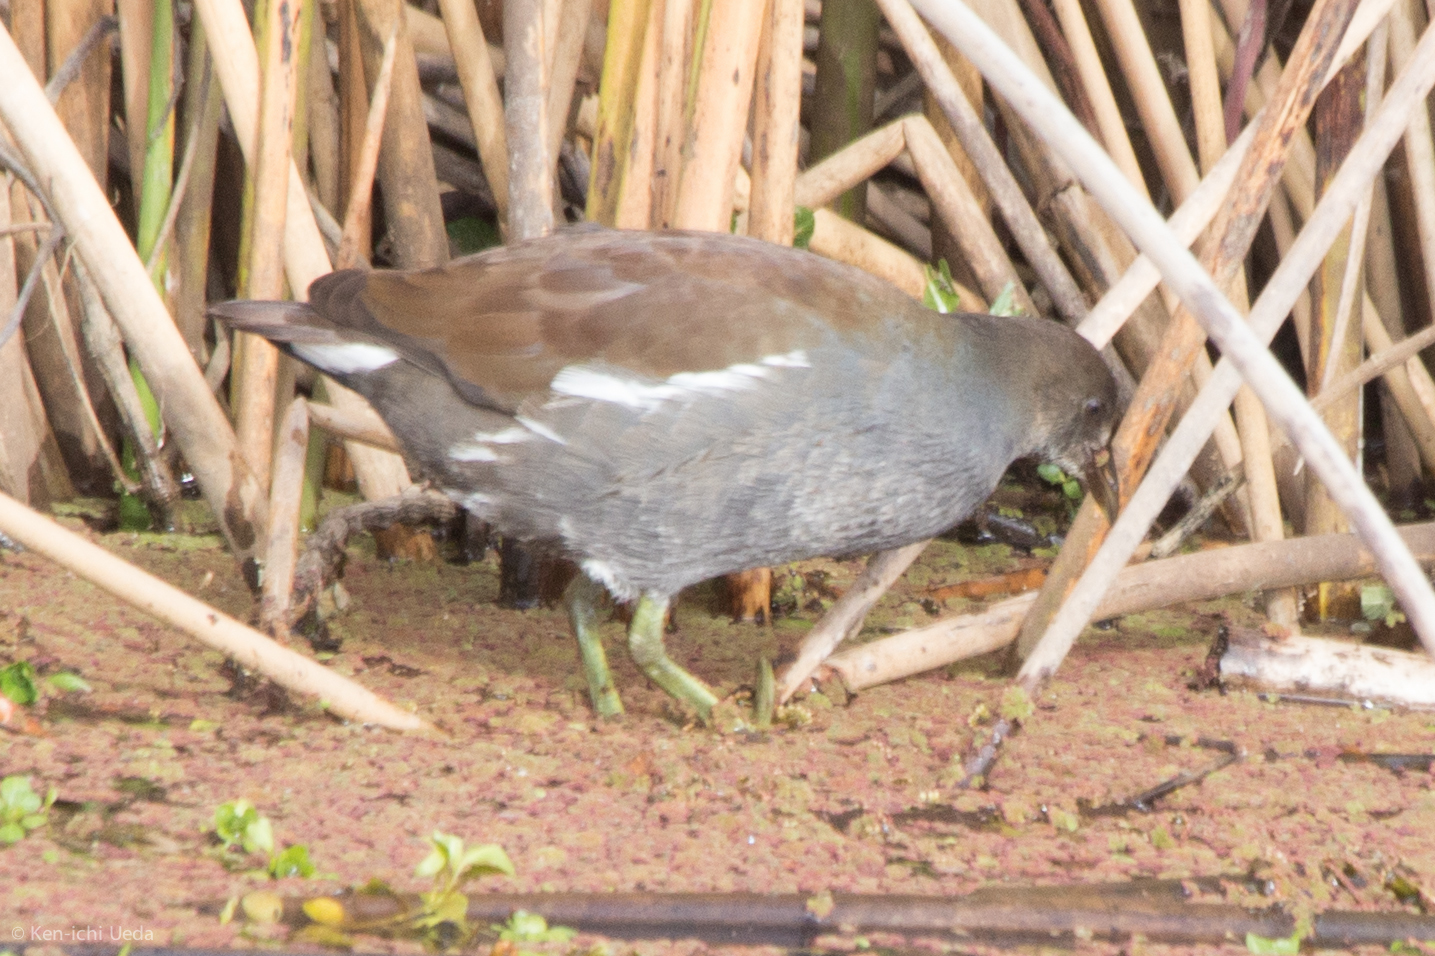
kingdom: Animalia
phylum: Chordata
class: Aves
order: Gruiformes
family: Rallidae
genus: Gallinula
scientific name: Gallinula chloropus
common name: Common moorhen
